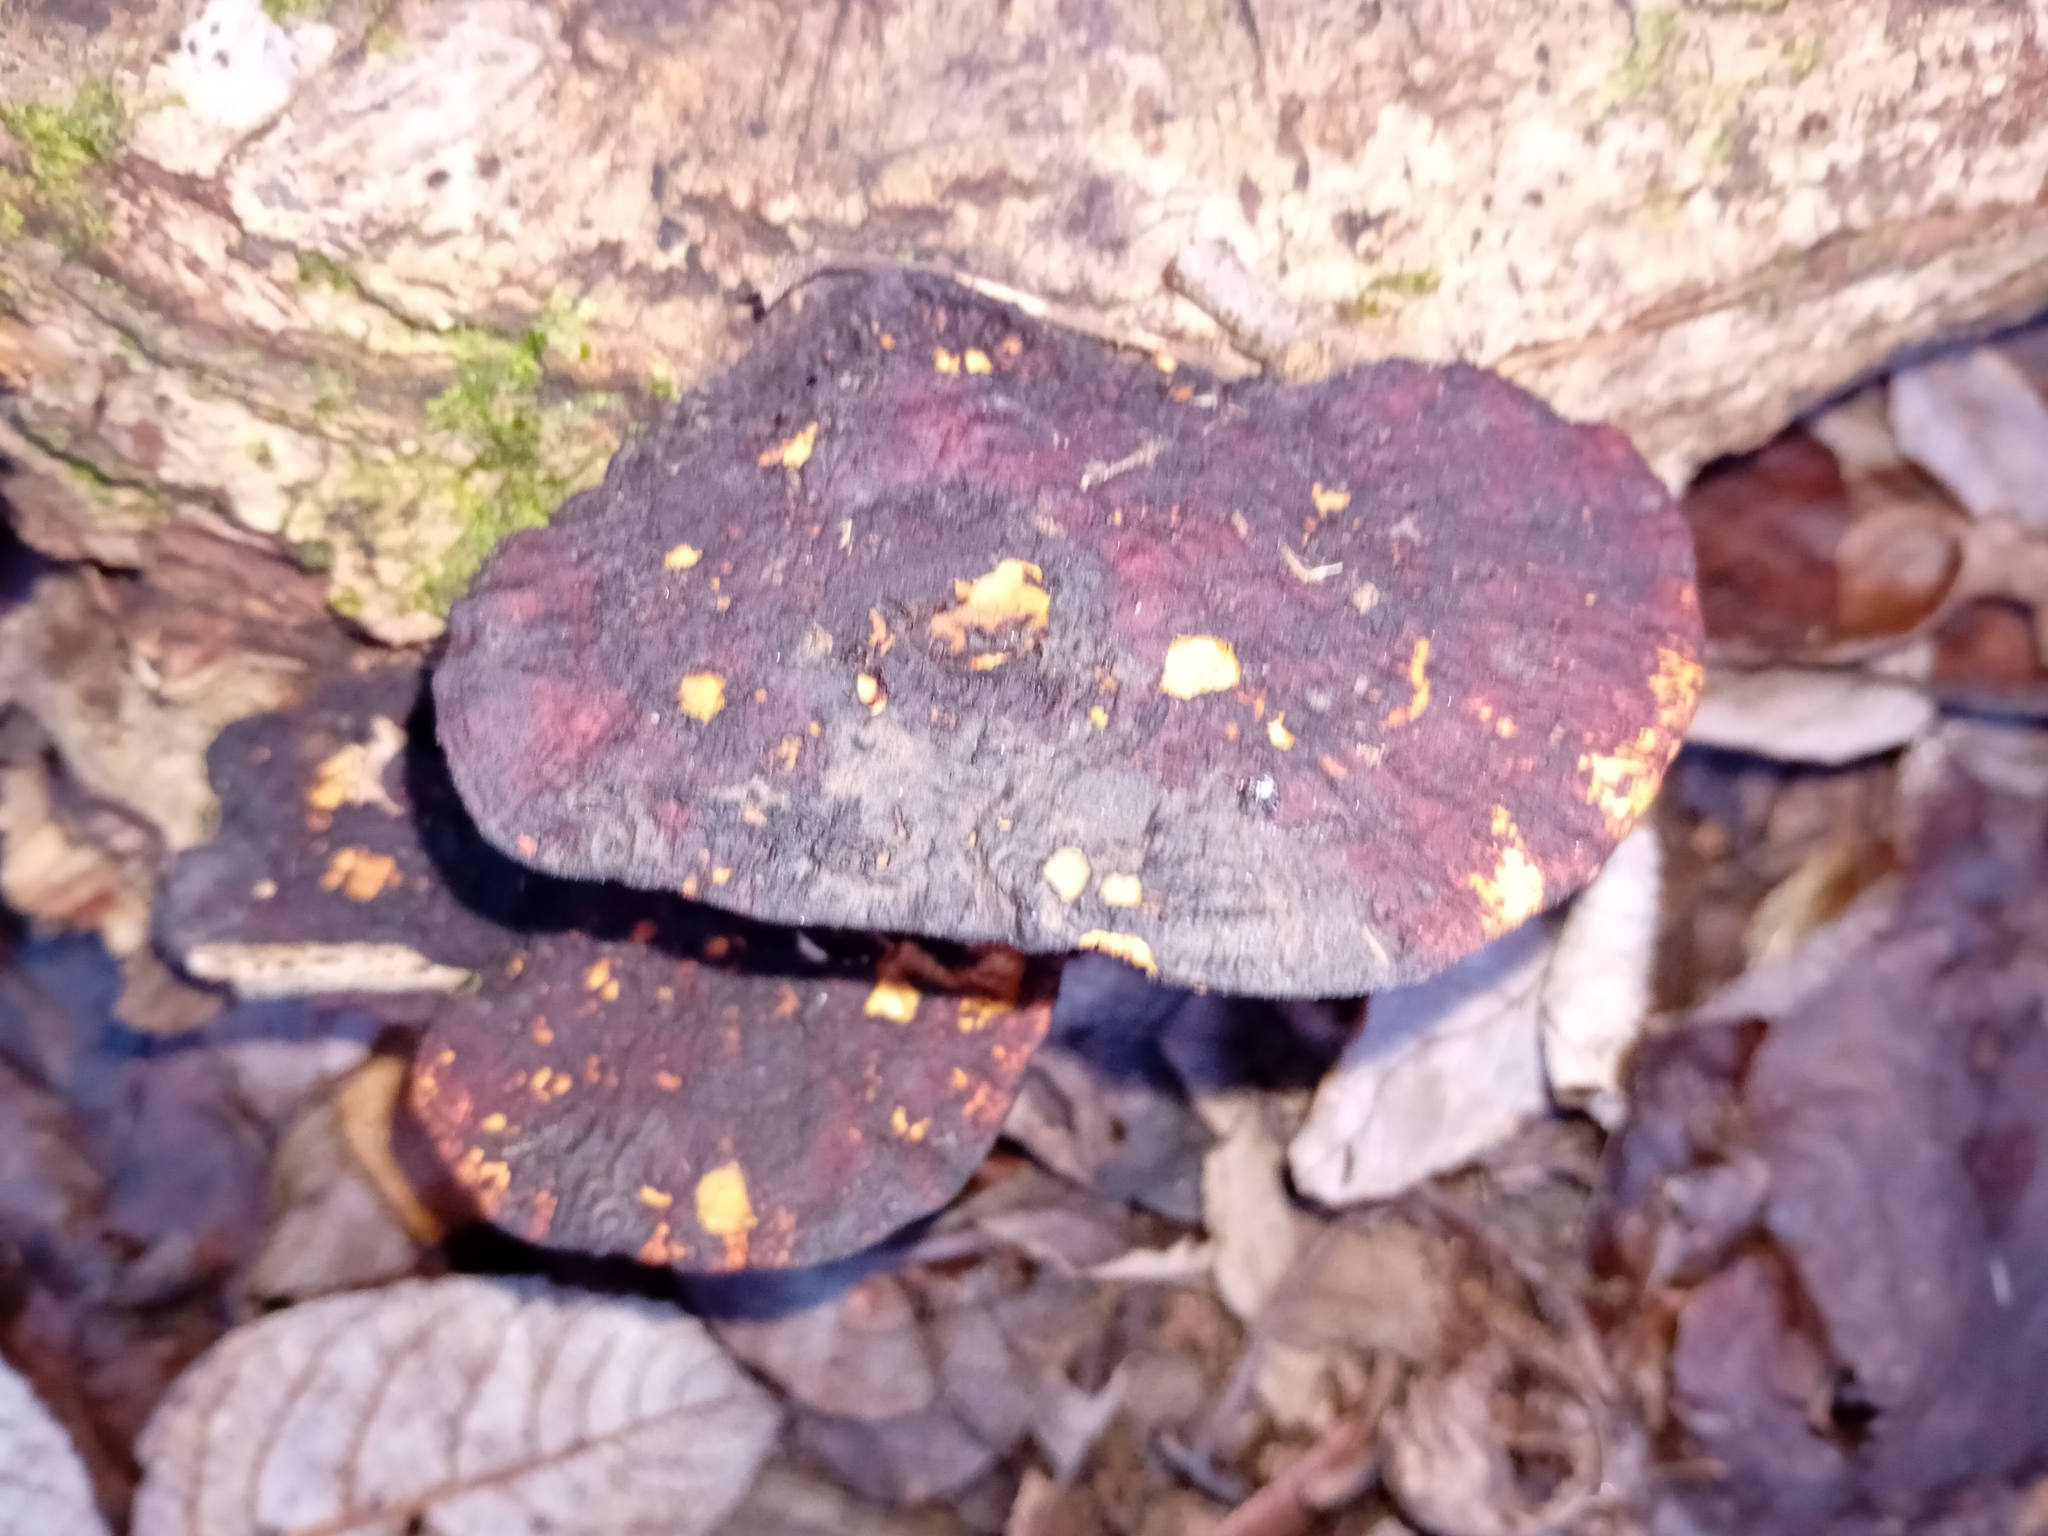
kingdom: Fungi
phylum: Basidiomycota
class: Agaricomycetes
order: Polyporales
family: Polyporaceae
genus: Daedaleopsis
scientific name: Daedaleopsis confragosa
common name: Blushing bracket
